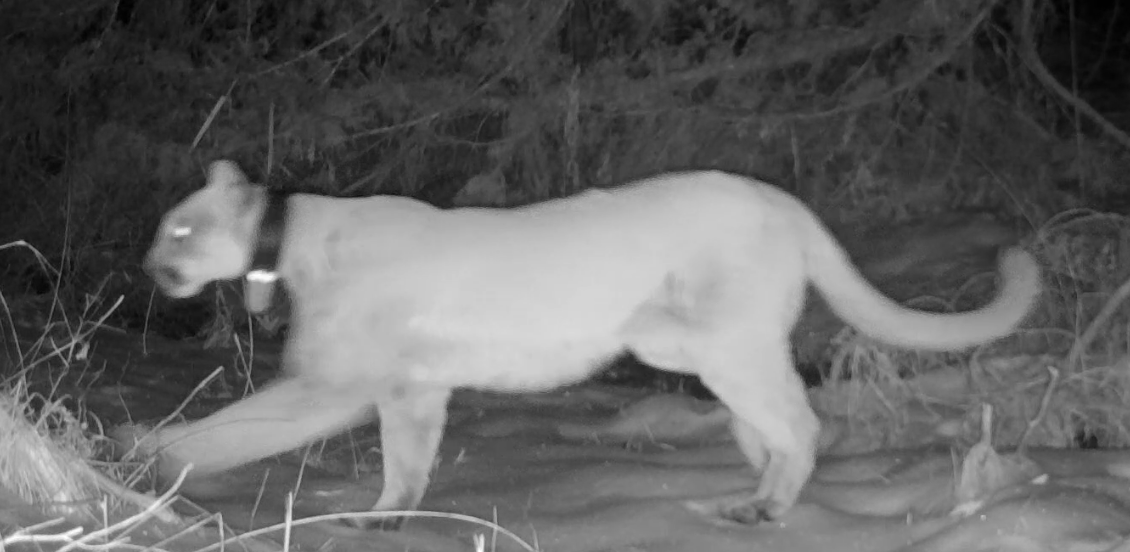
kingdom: Animalia
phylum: Chordata
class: Mammalia
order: Carnivora
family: Felidae
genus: Puma
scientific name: Puma concolor
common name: Puma
